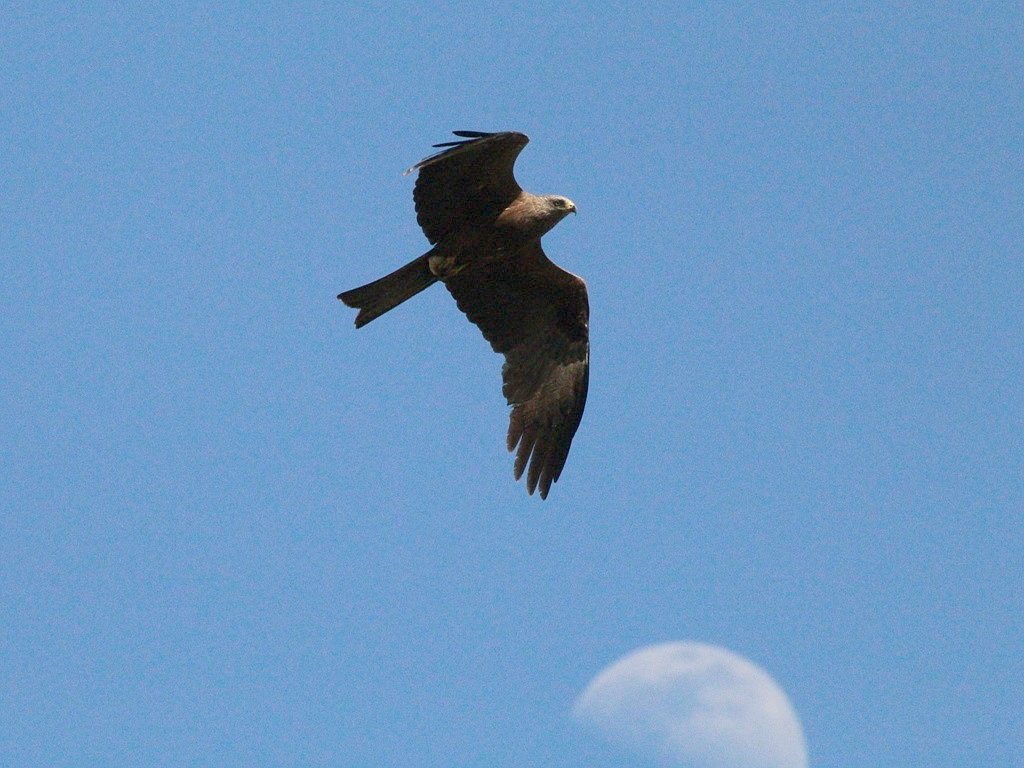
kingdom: Animalia
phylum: Chordata
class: Aves
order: Accipitriformes
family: Accipitridae
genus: Milvus
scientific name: Milvus migrans
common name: Black kite
